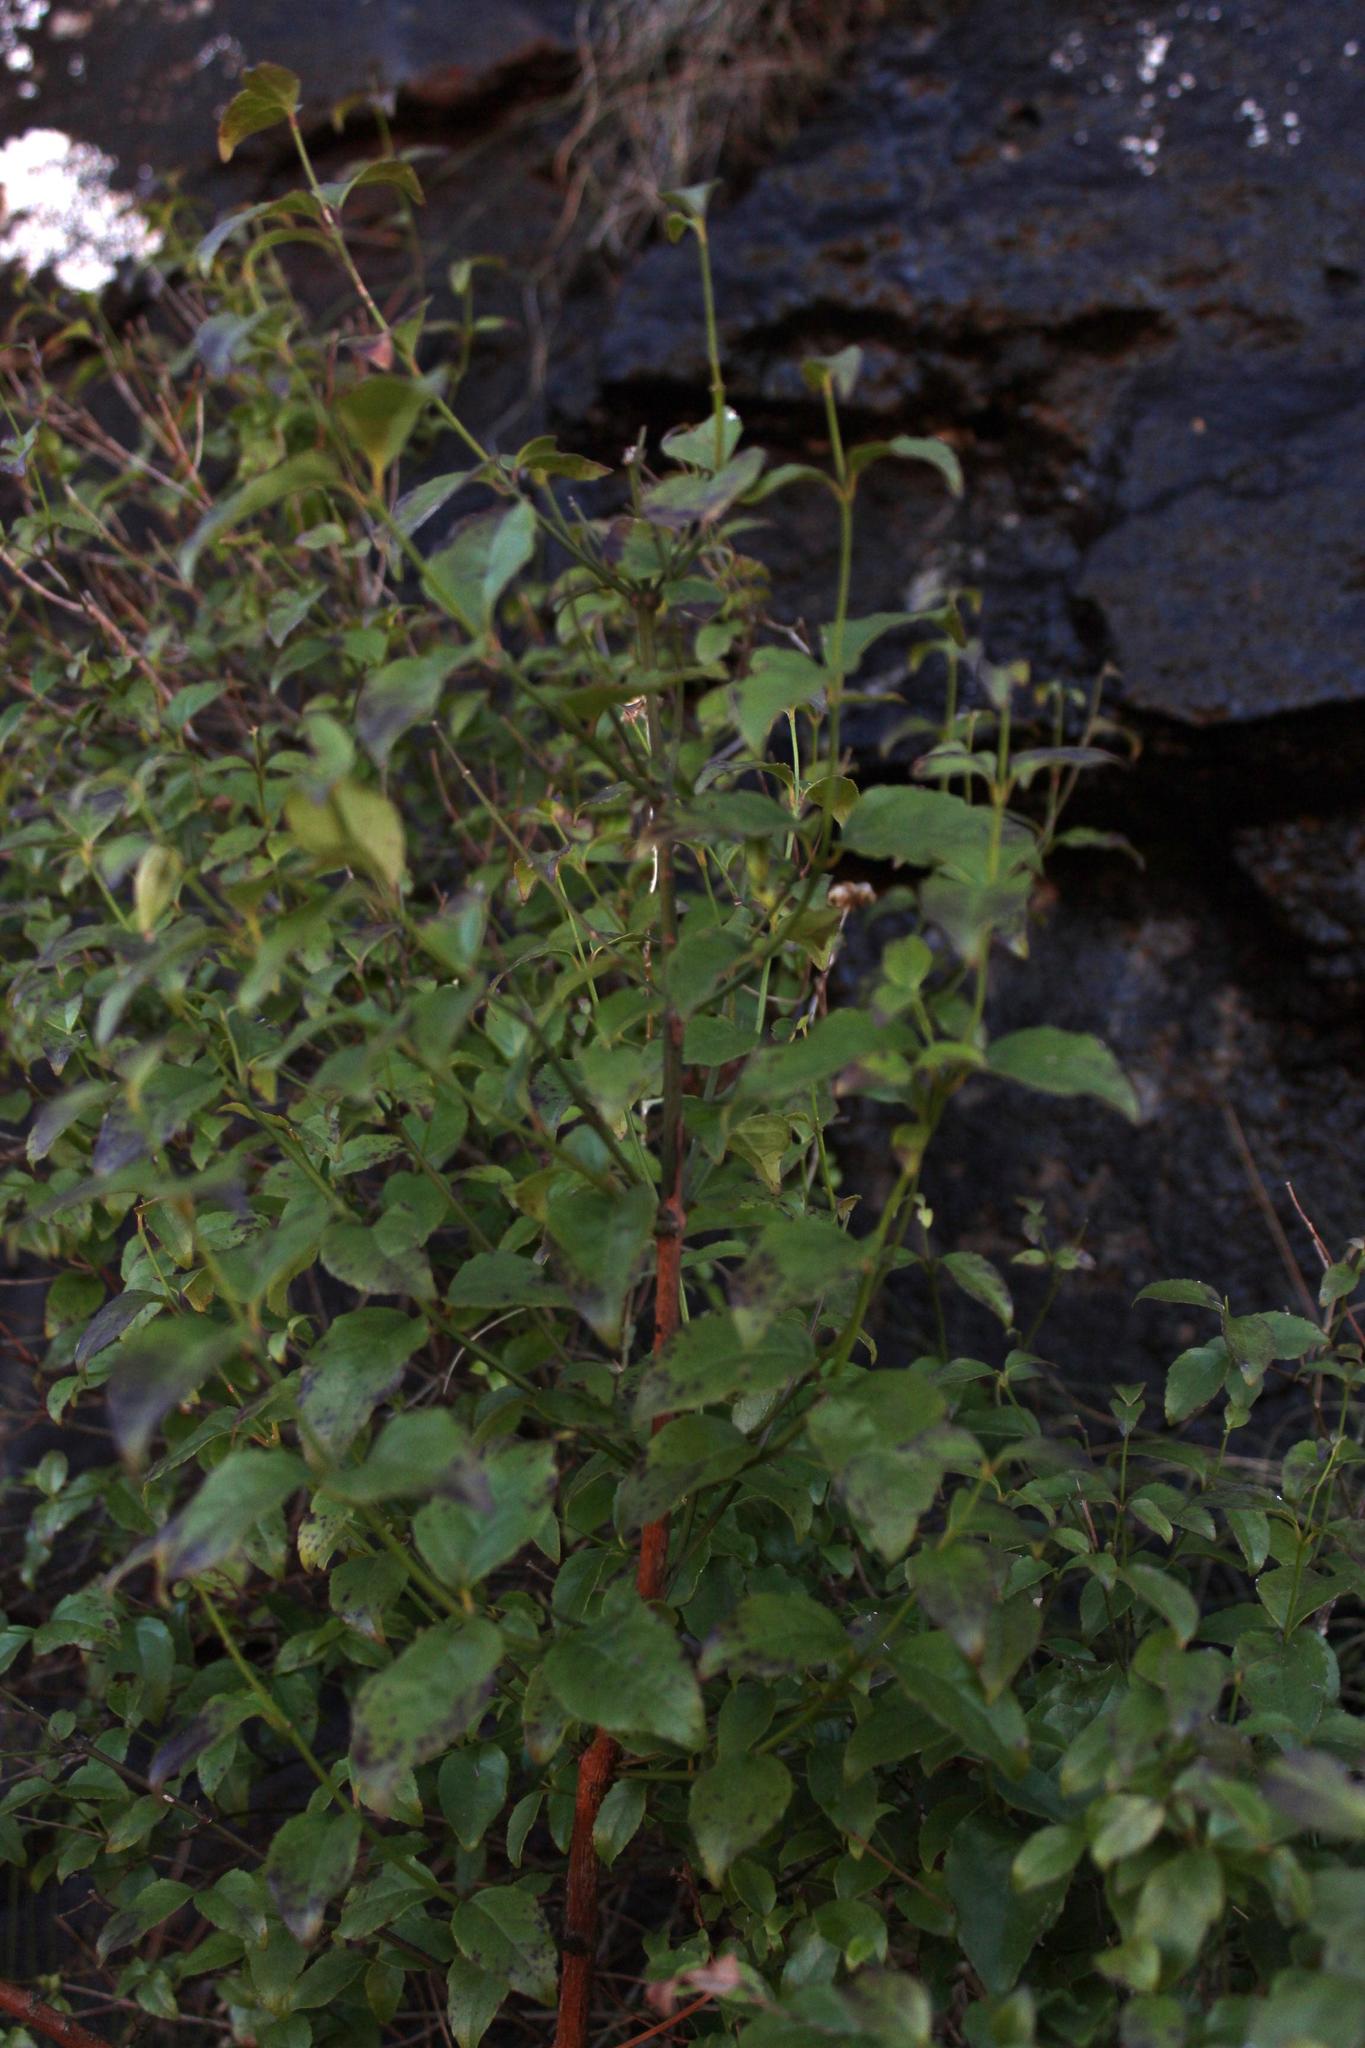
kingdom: Plantae
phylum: Tracheophyta
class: Magnoliopsida
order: Lamiales
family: Stilbaceae
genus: Halleria
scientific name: Halleria lucida
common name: Tree fuschia
